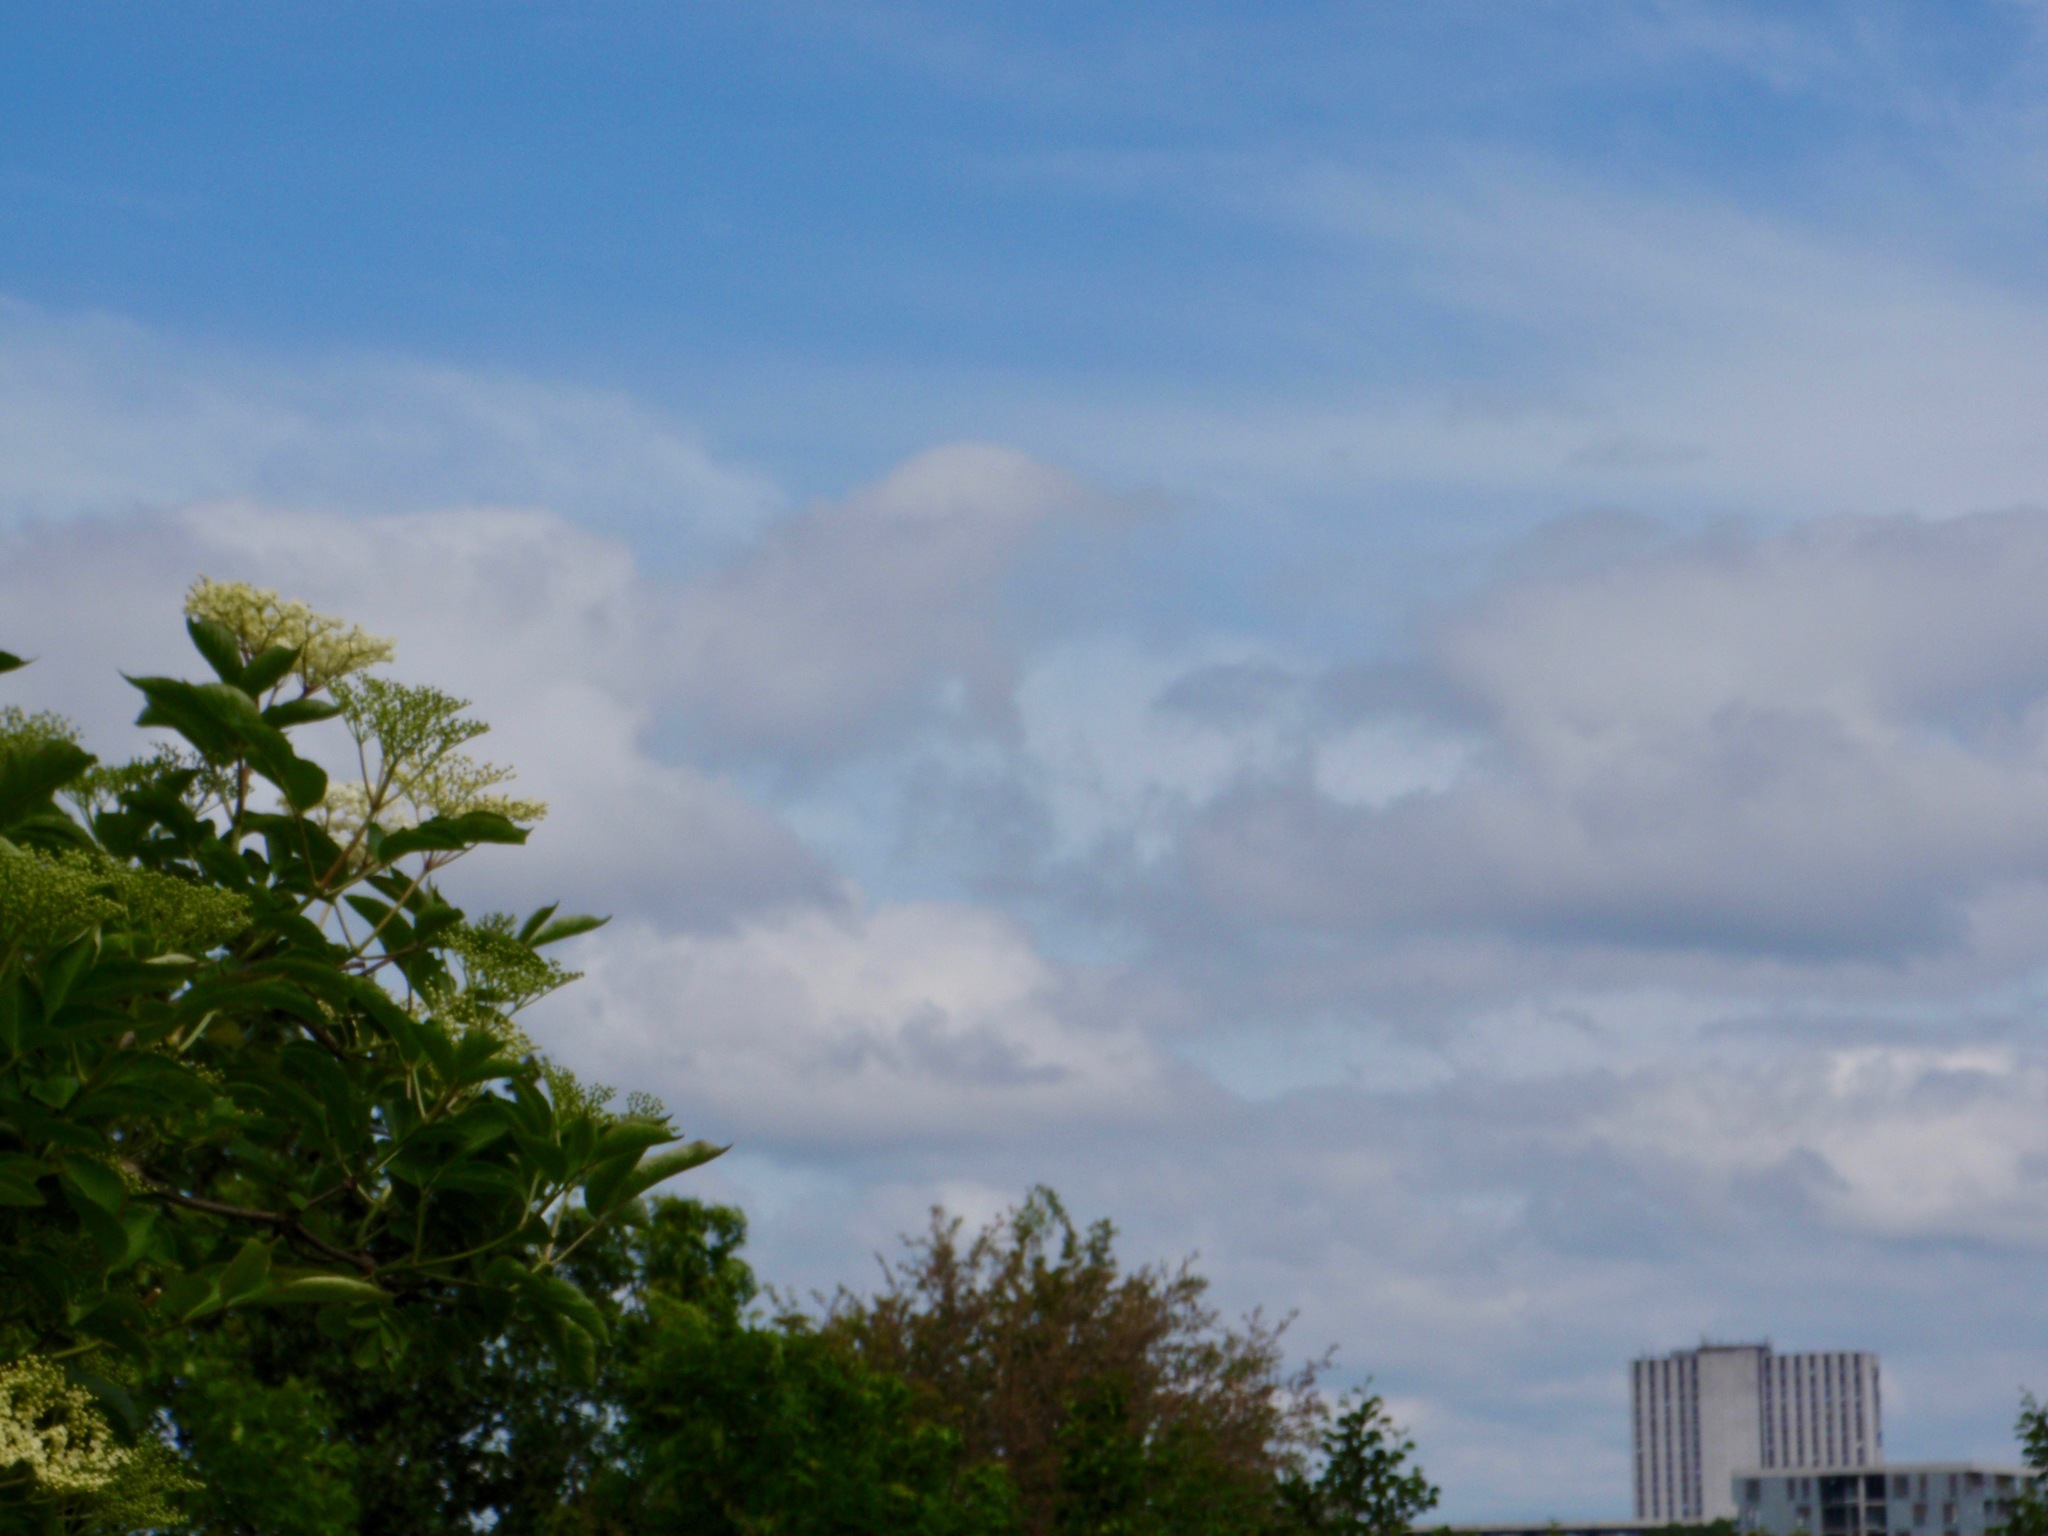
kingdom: Plantae
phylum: Tracheophyta
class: Magnoliopsida
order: Dipsacales
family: Viburnaceae
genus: Sambucus
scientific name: Sambucus nigra
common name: Elder
